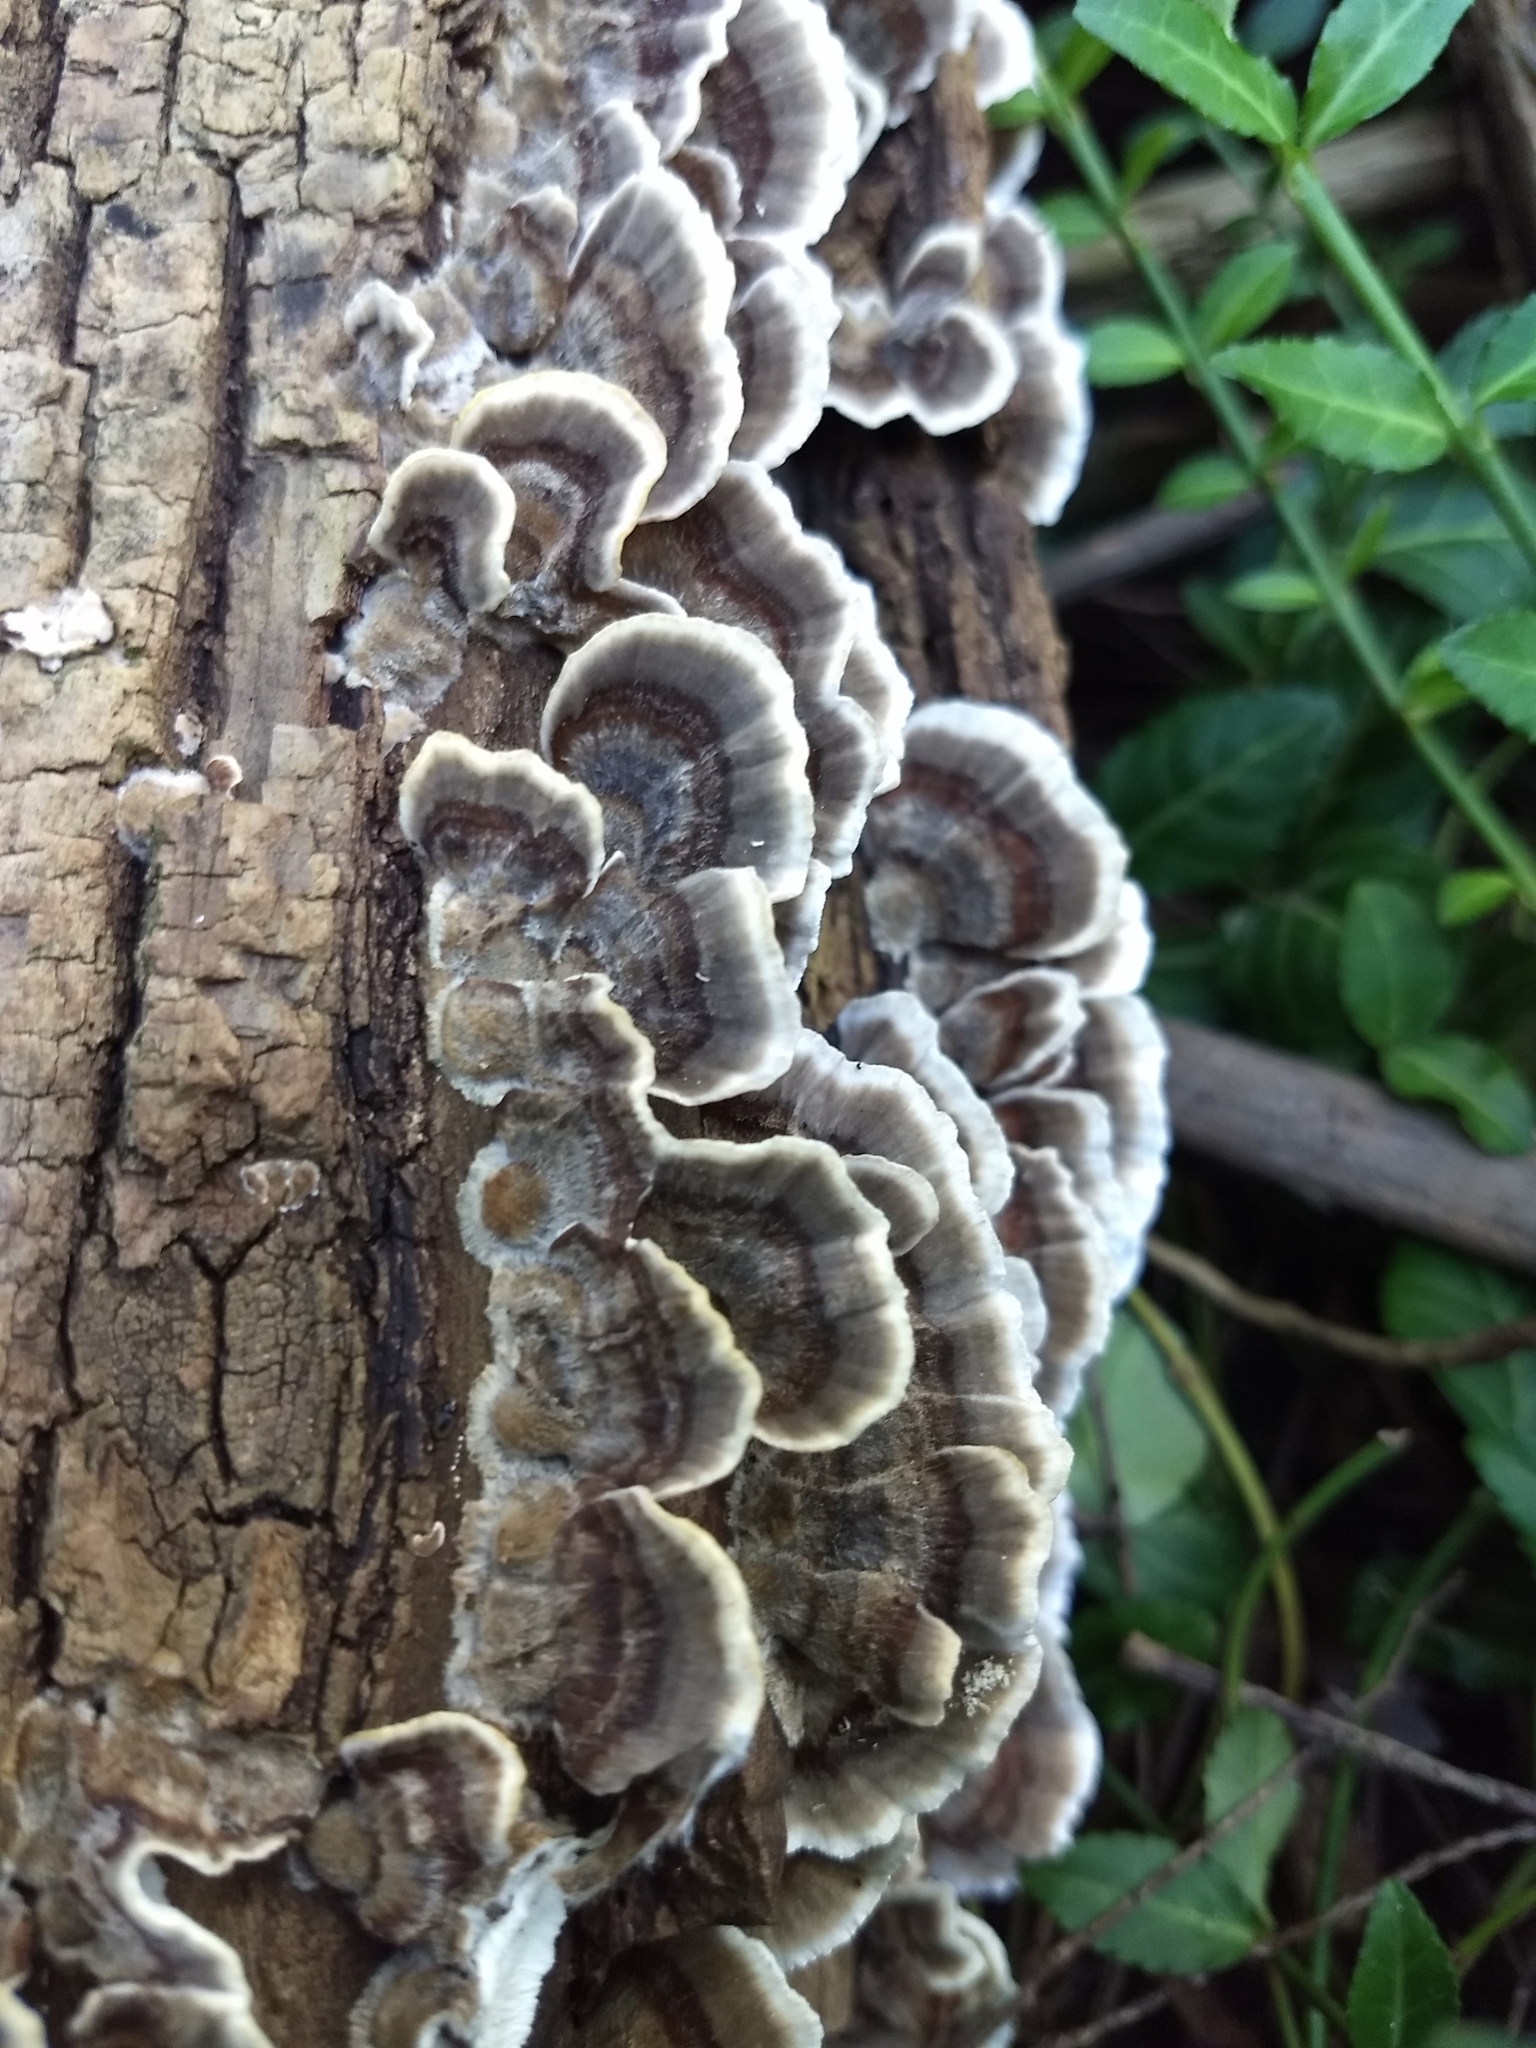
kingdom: Fungi
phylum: Basidiomycota
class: Agaricomycetes
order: Polyporales
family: Polyporaceae
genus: Trametes
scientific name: Trametes versicolor
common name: Turkeytail
